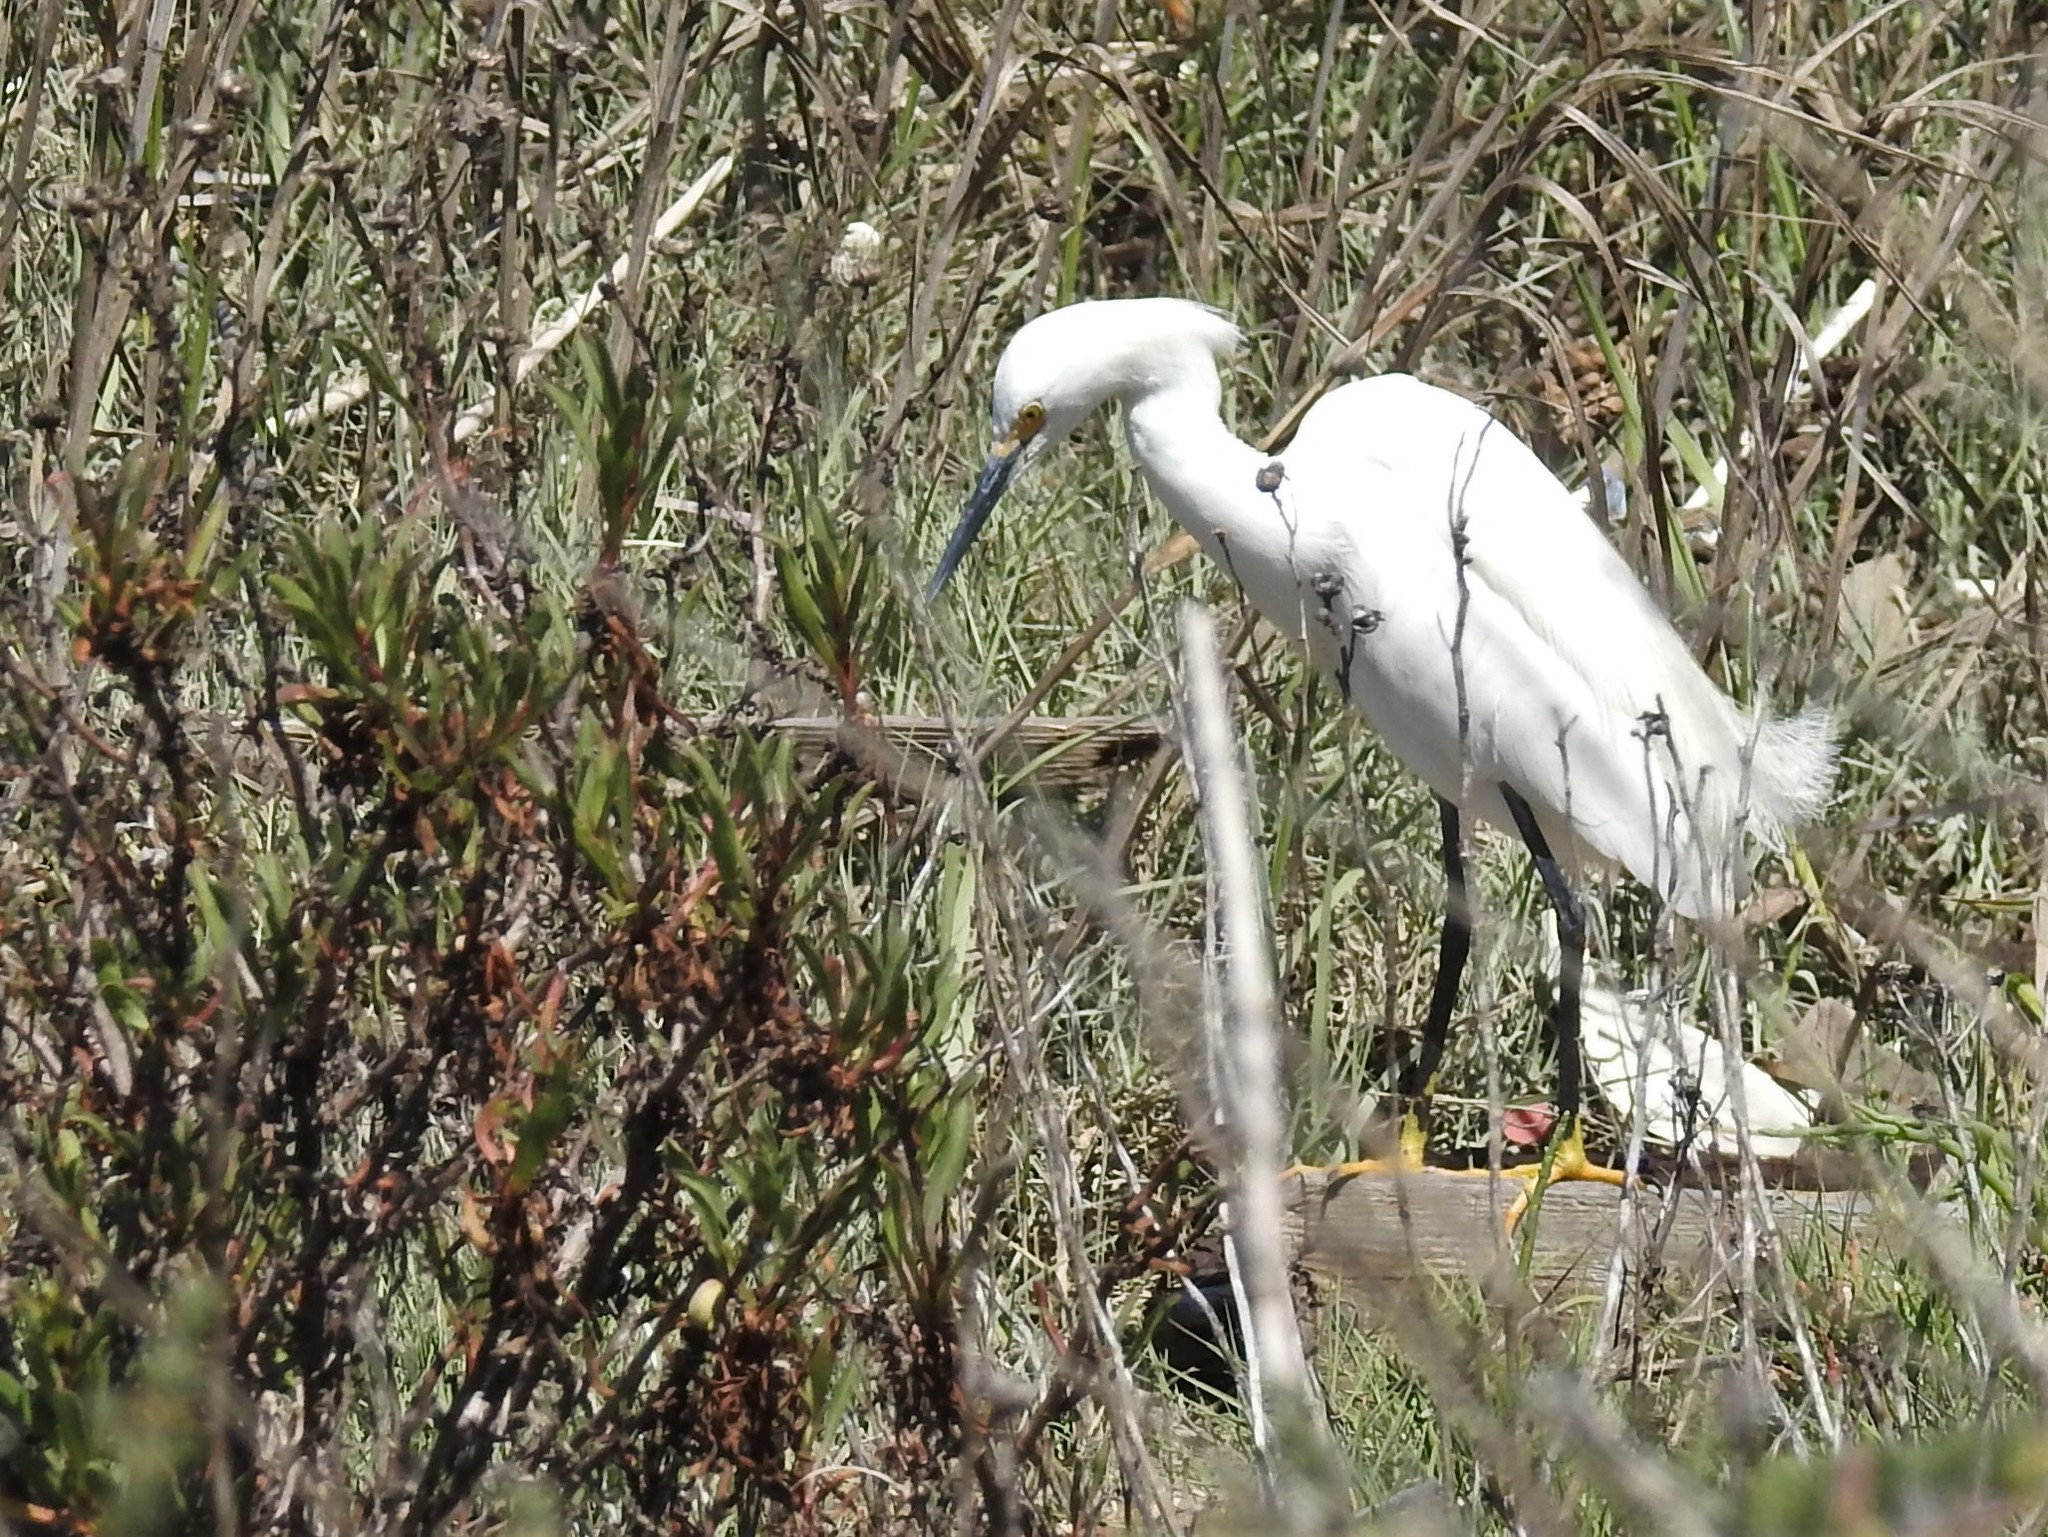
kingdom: Animalia
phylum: Chordata
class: Aves
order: Pelecaniformes
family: Ardeidae
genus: Egretta
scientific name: Egretta thula
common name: Snowy egret
